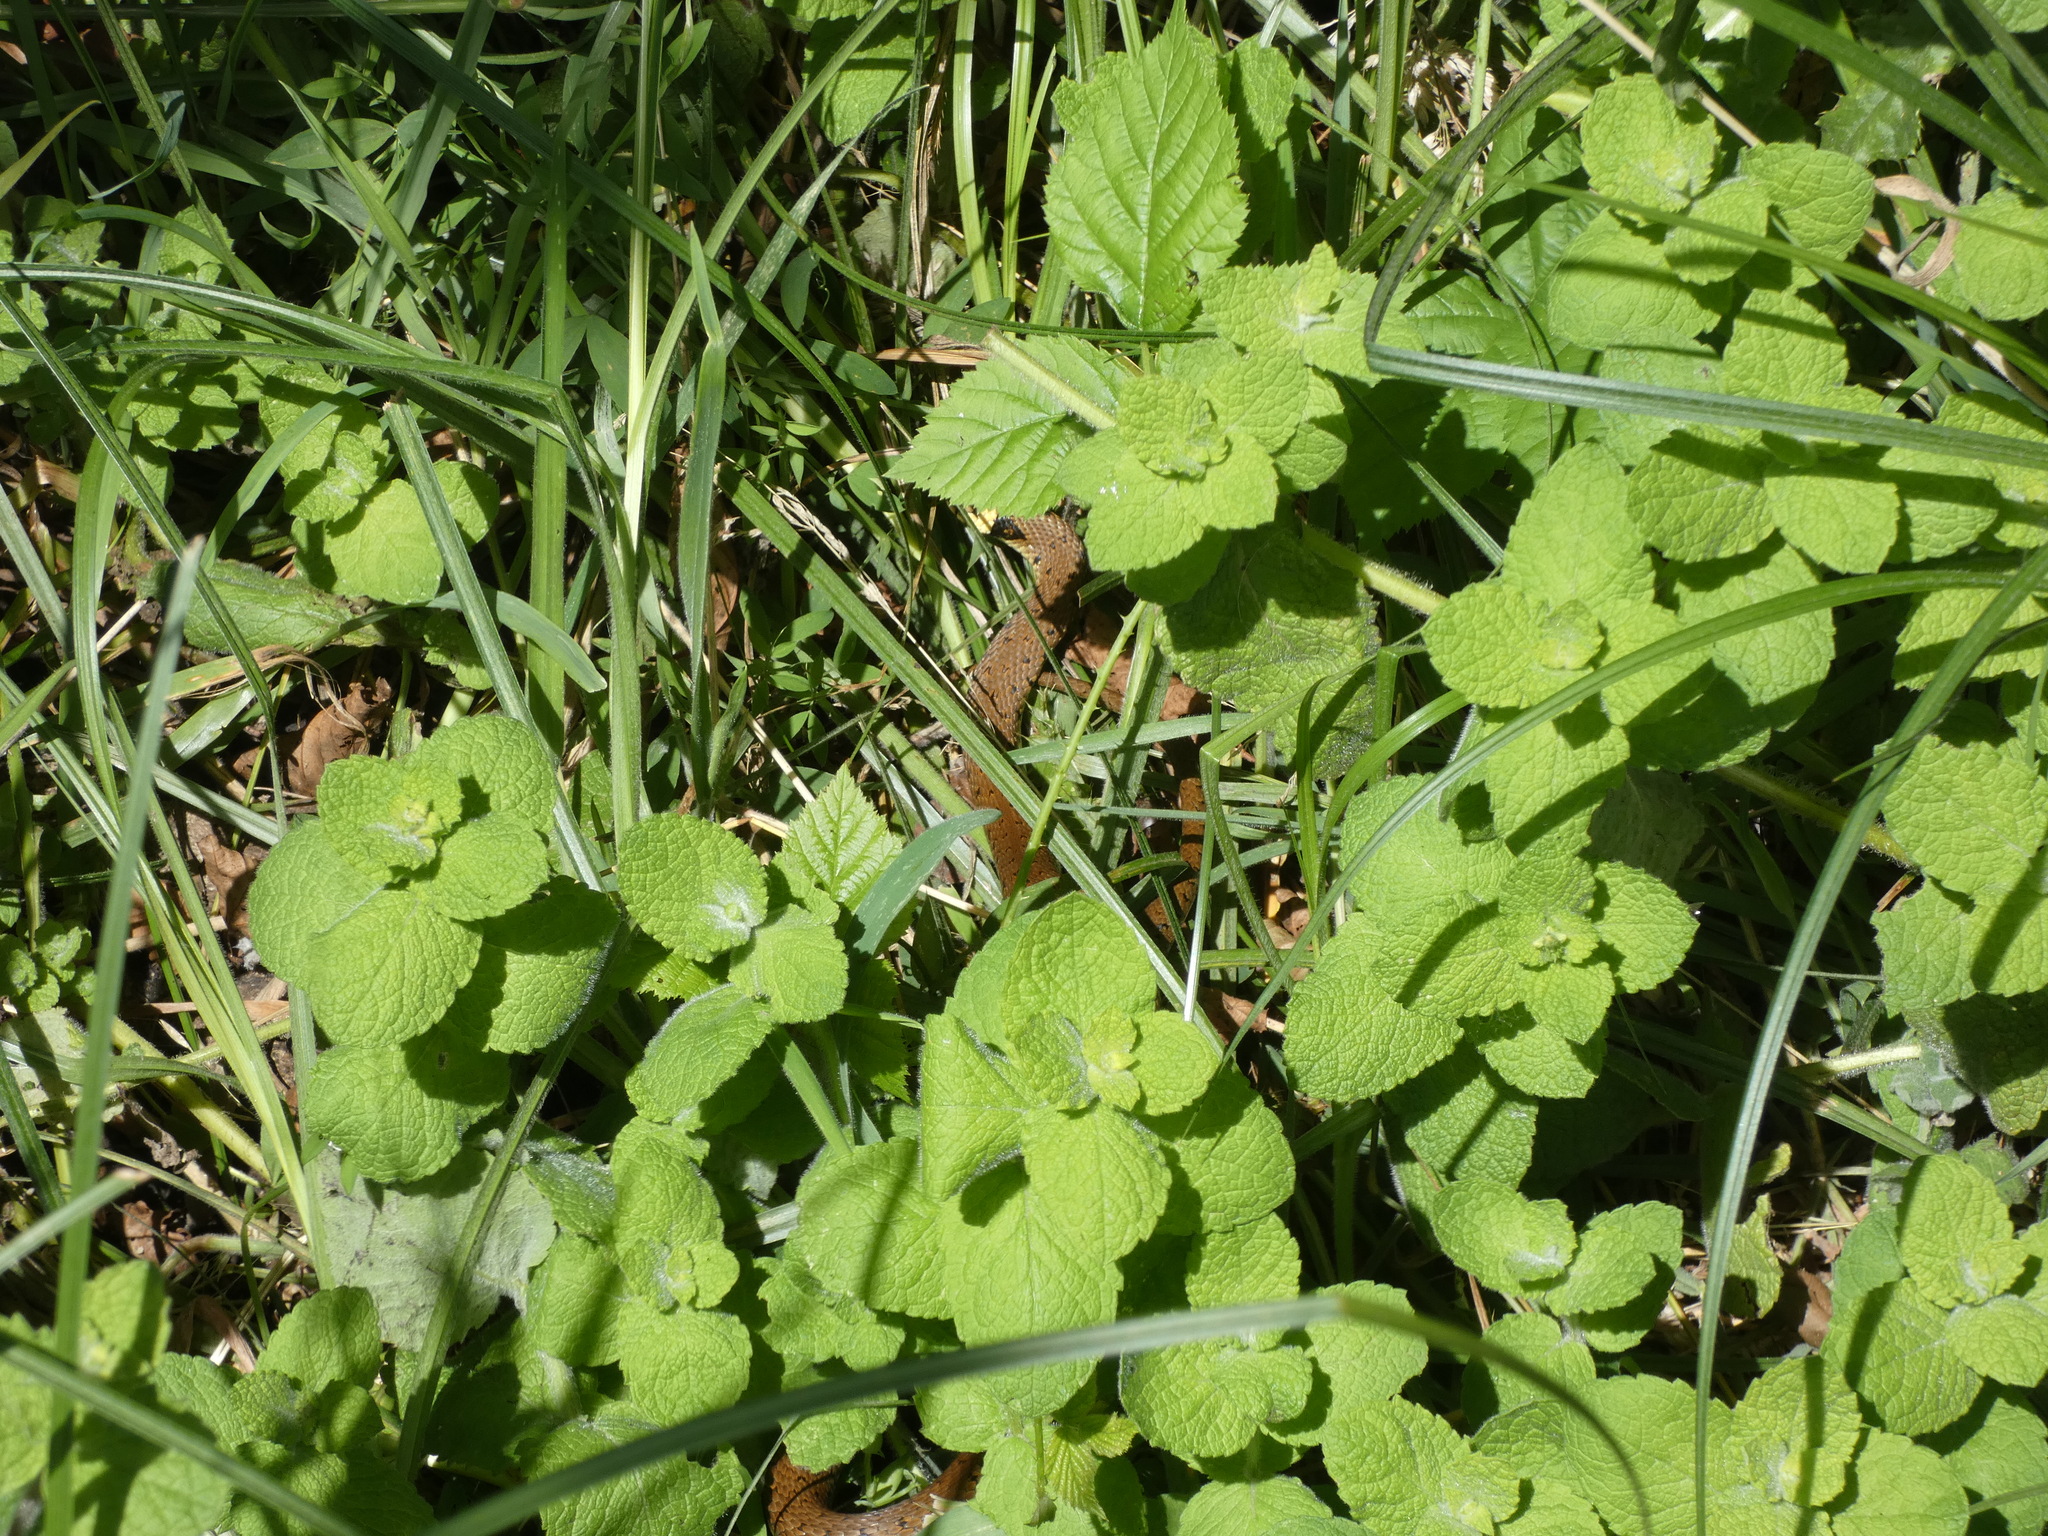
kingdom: Animalia
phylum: Chordata
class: Squamata
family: Colubridae
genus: Natrix
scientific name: Natrix helvetica
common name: Banded grass snake
